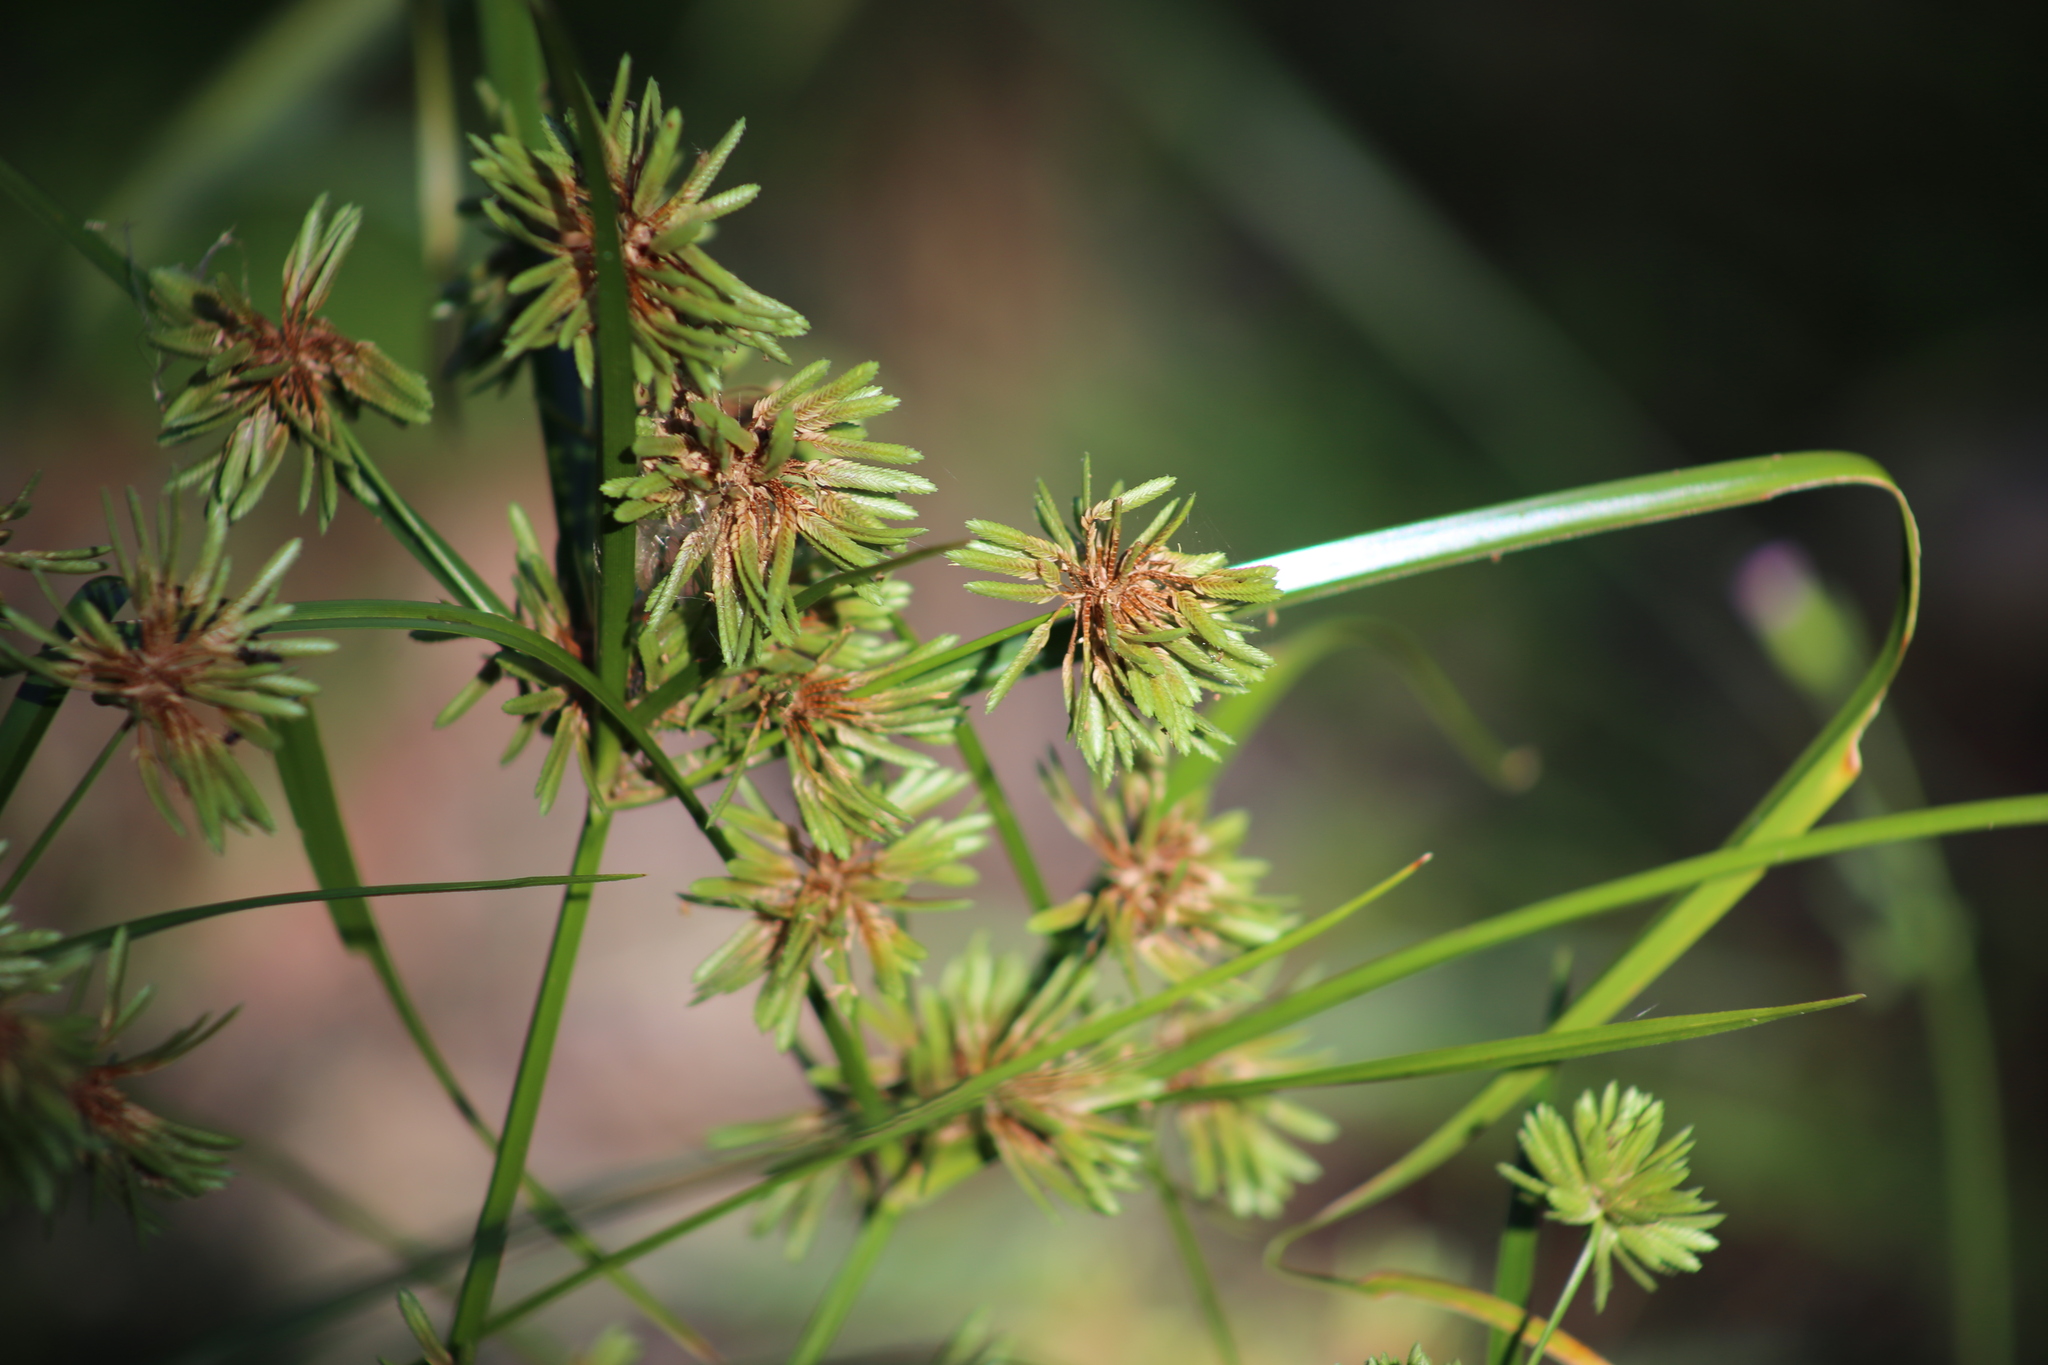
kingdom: Plantae
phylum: Tracheophyta
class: Liliopsida
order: Poales
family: Cyperaceae
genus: Cyperus
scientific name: Cyperus eragrostis
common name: Tall flatsedge
